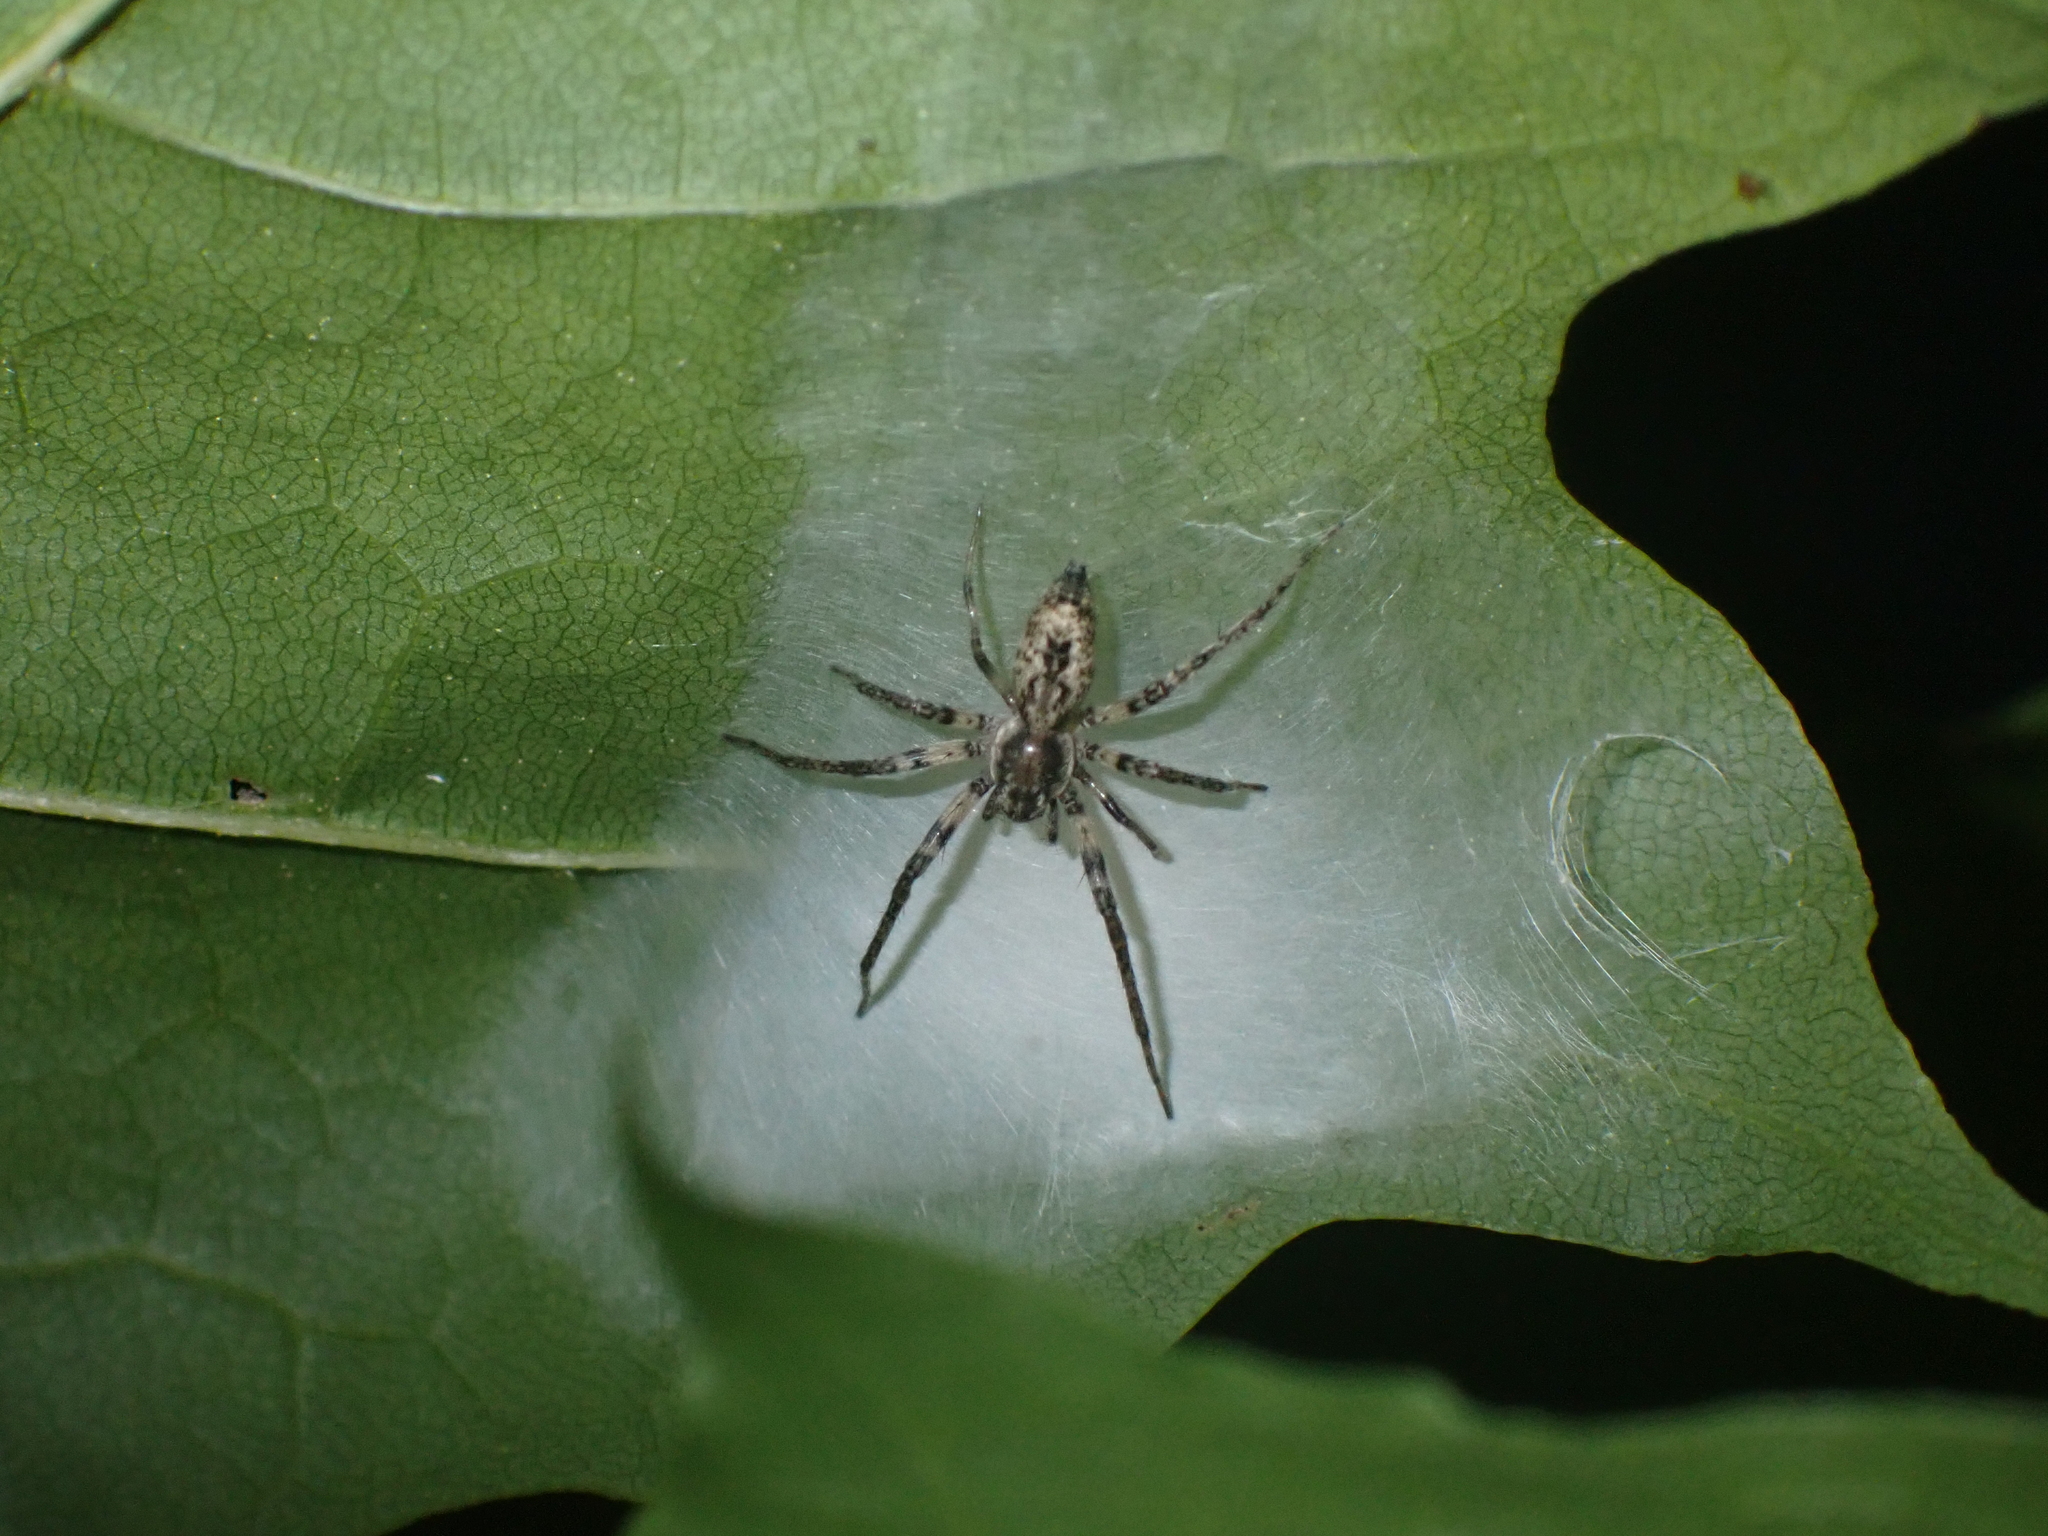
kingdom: Animalia
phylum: Arthropoda
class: Arachnida
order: Araneae
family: Anyphaenidae
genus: Anyphaena
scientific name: Anyphaena accentuata
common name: Buzzing spider
